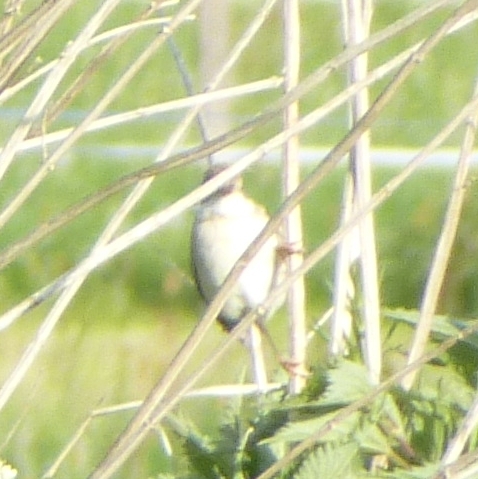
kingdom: Animalia
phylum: Chordata
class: Aves
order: Passeriformes
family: Sylviidae
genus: Sylvia
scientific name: Sylvia communis
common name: Common whitethroat
